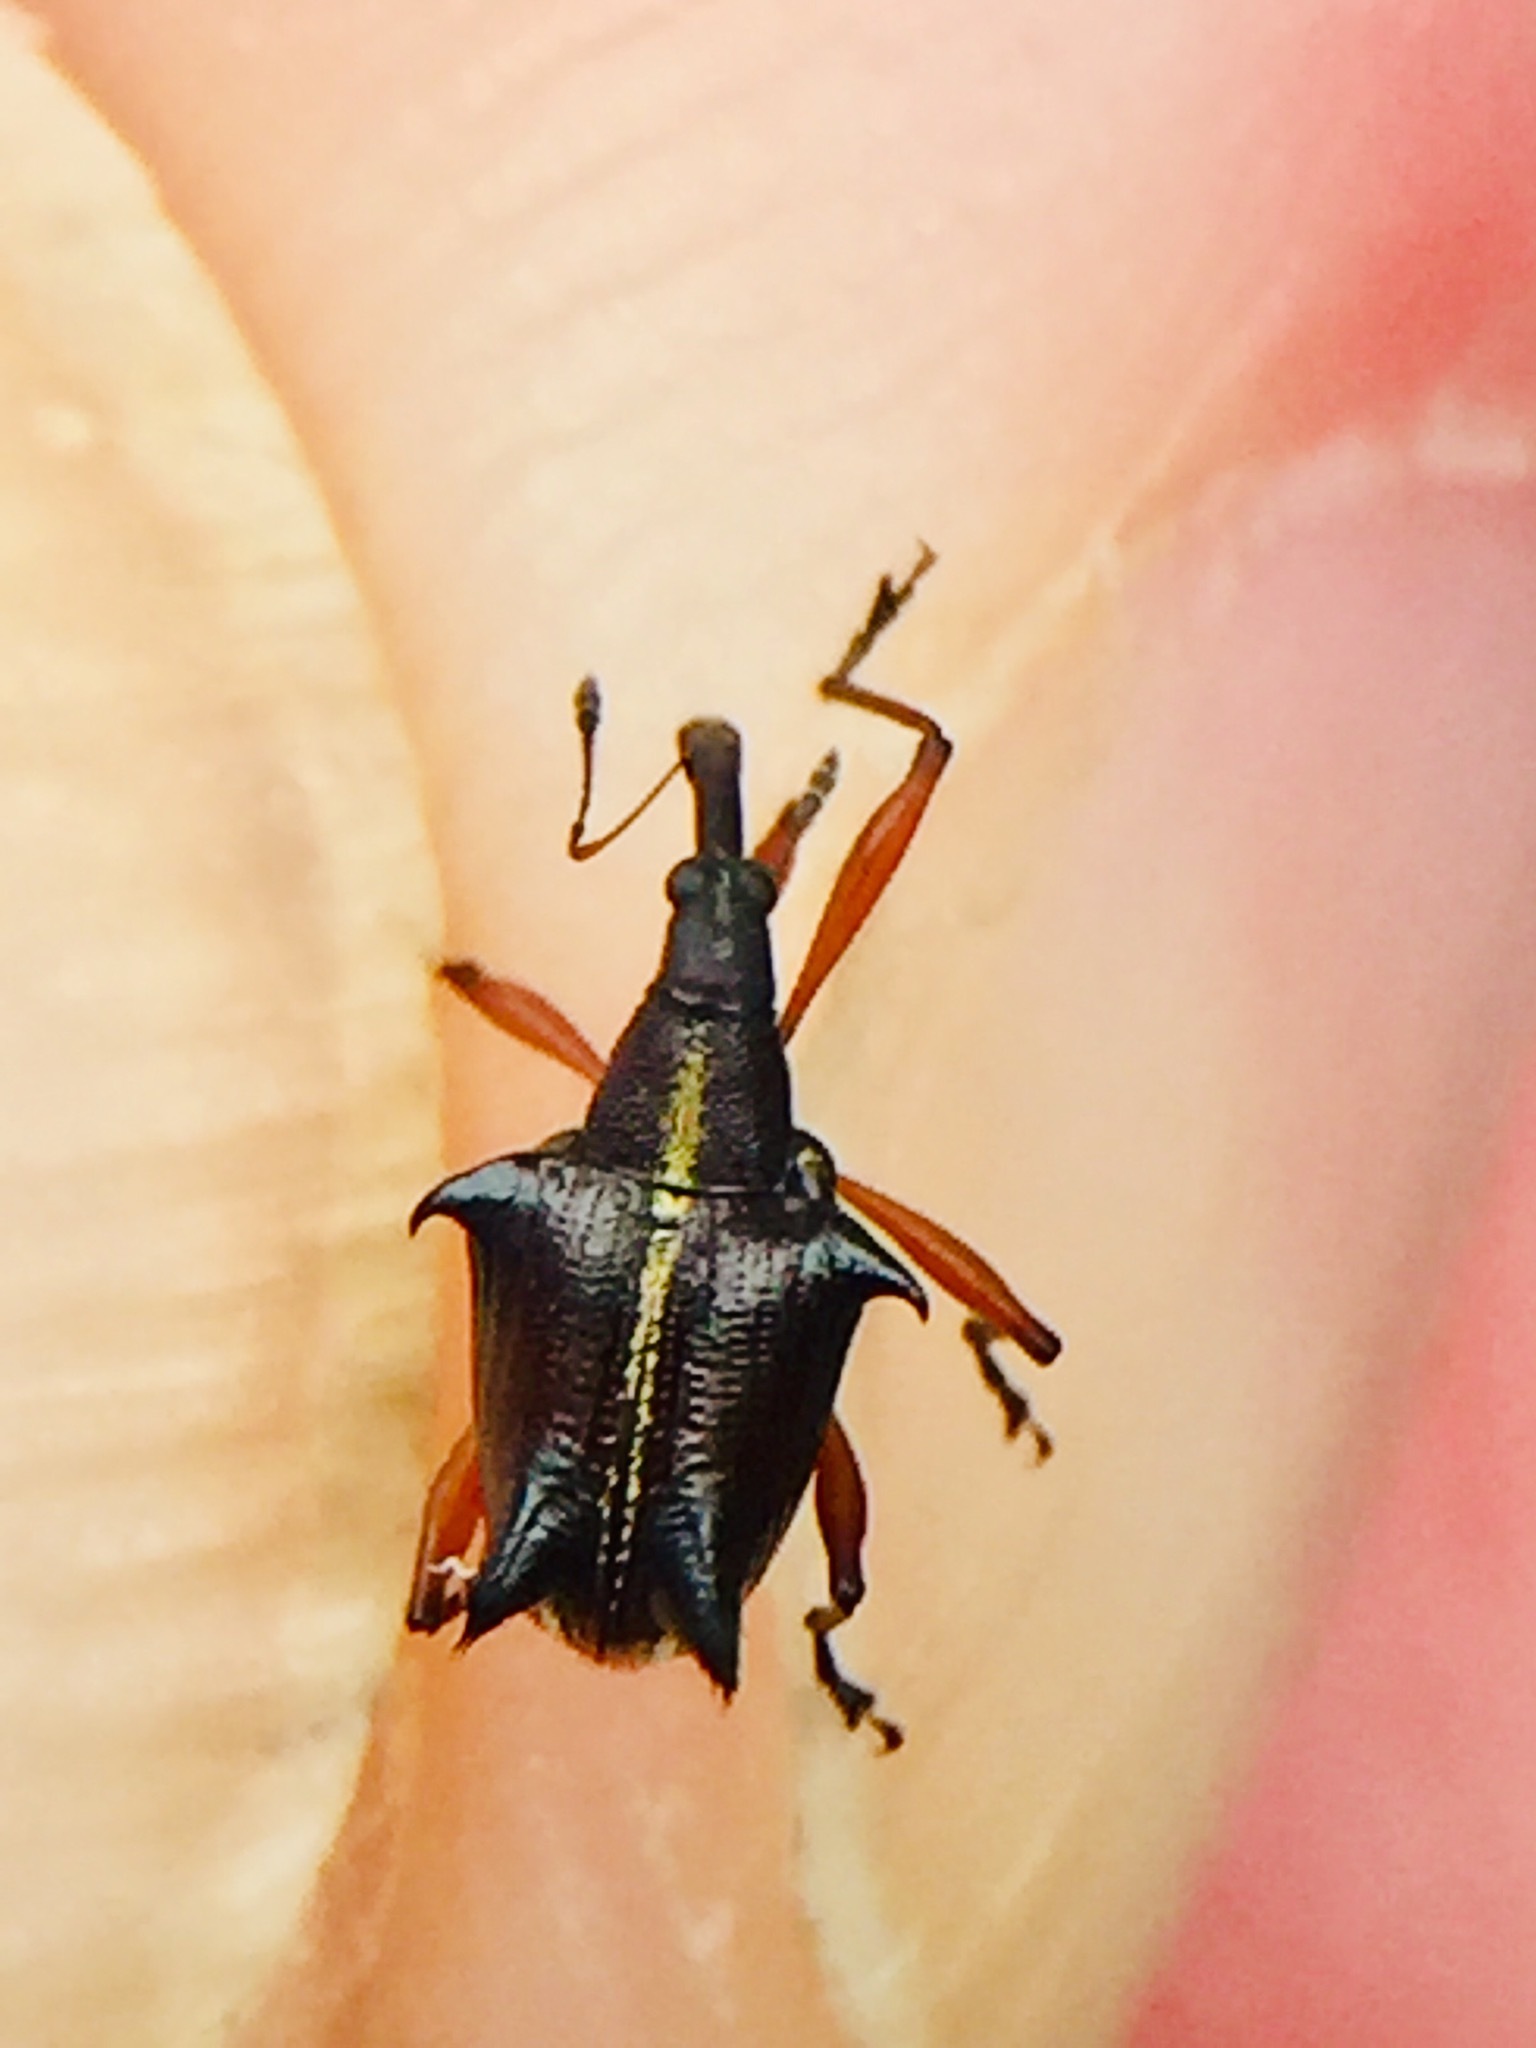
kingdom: Animalia
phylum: Arthropoda
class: Insecta
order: Coleoptera
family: Curculionidae
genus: Ancistropterus
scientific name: Ancistropterus quadrispinosus
